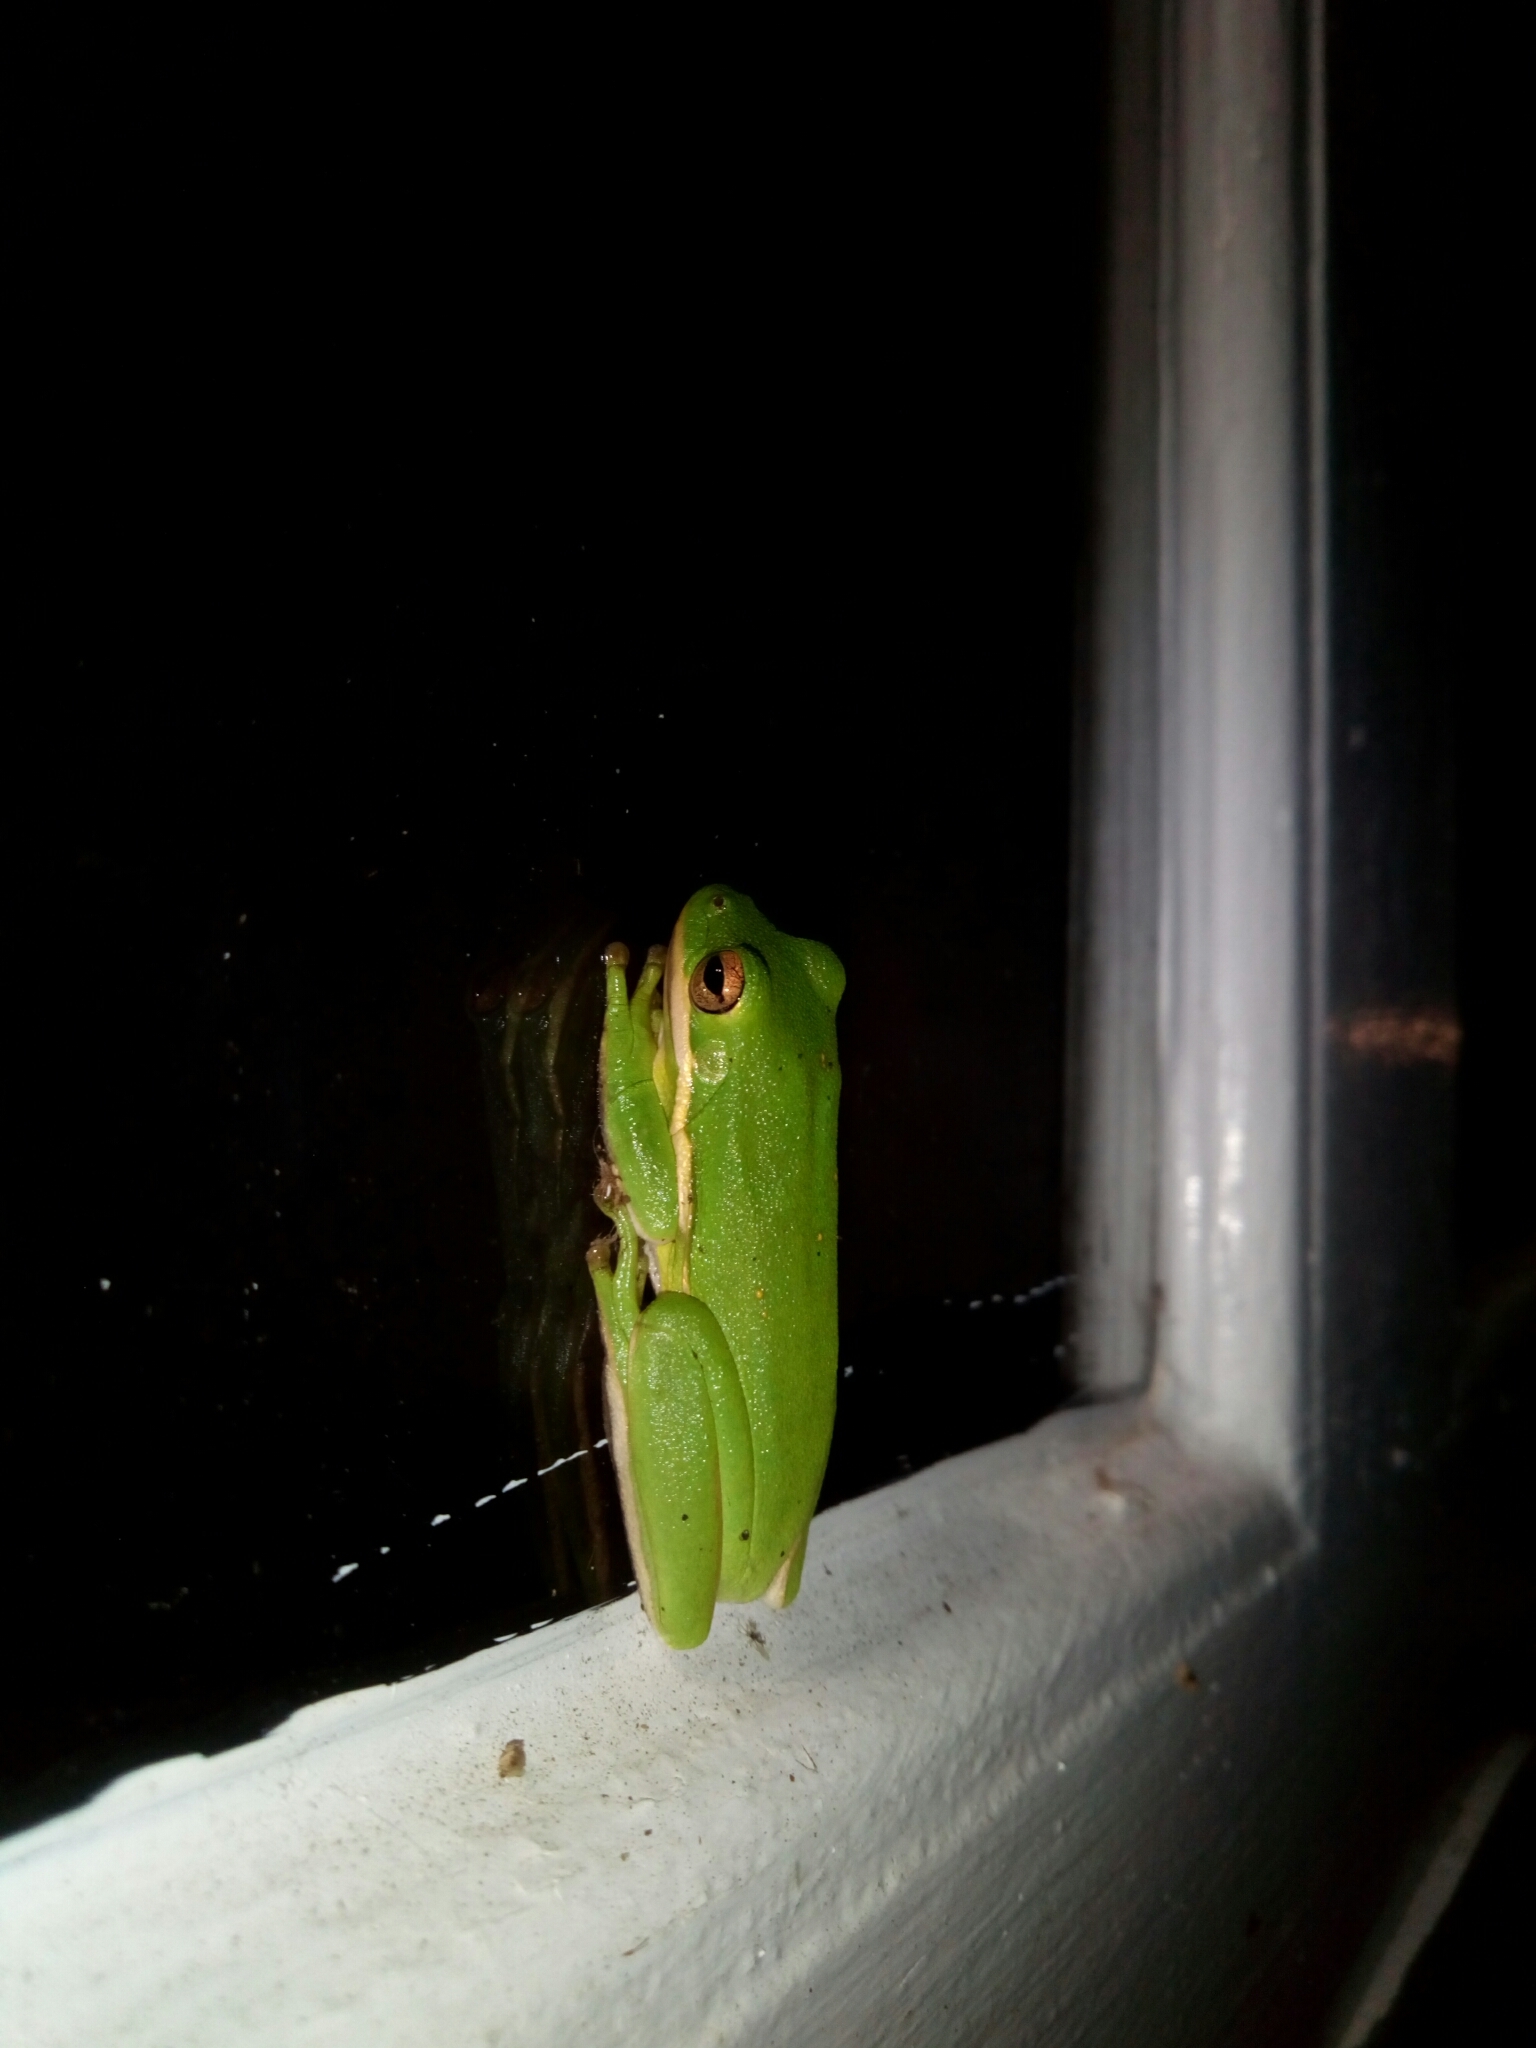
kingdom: Animalia
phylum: Chordata
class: Amphibia
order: Anura
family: Hylidae
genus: Dryophytes
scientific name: Dryophytes cinereus
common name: Green treefrog
